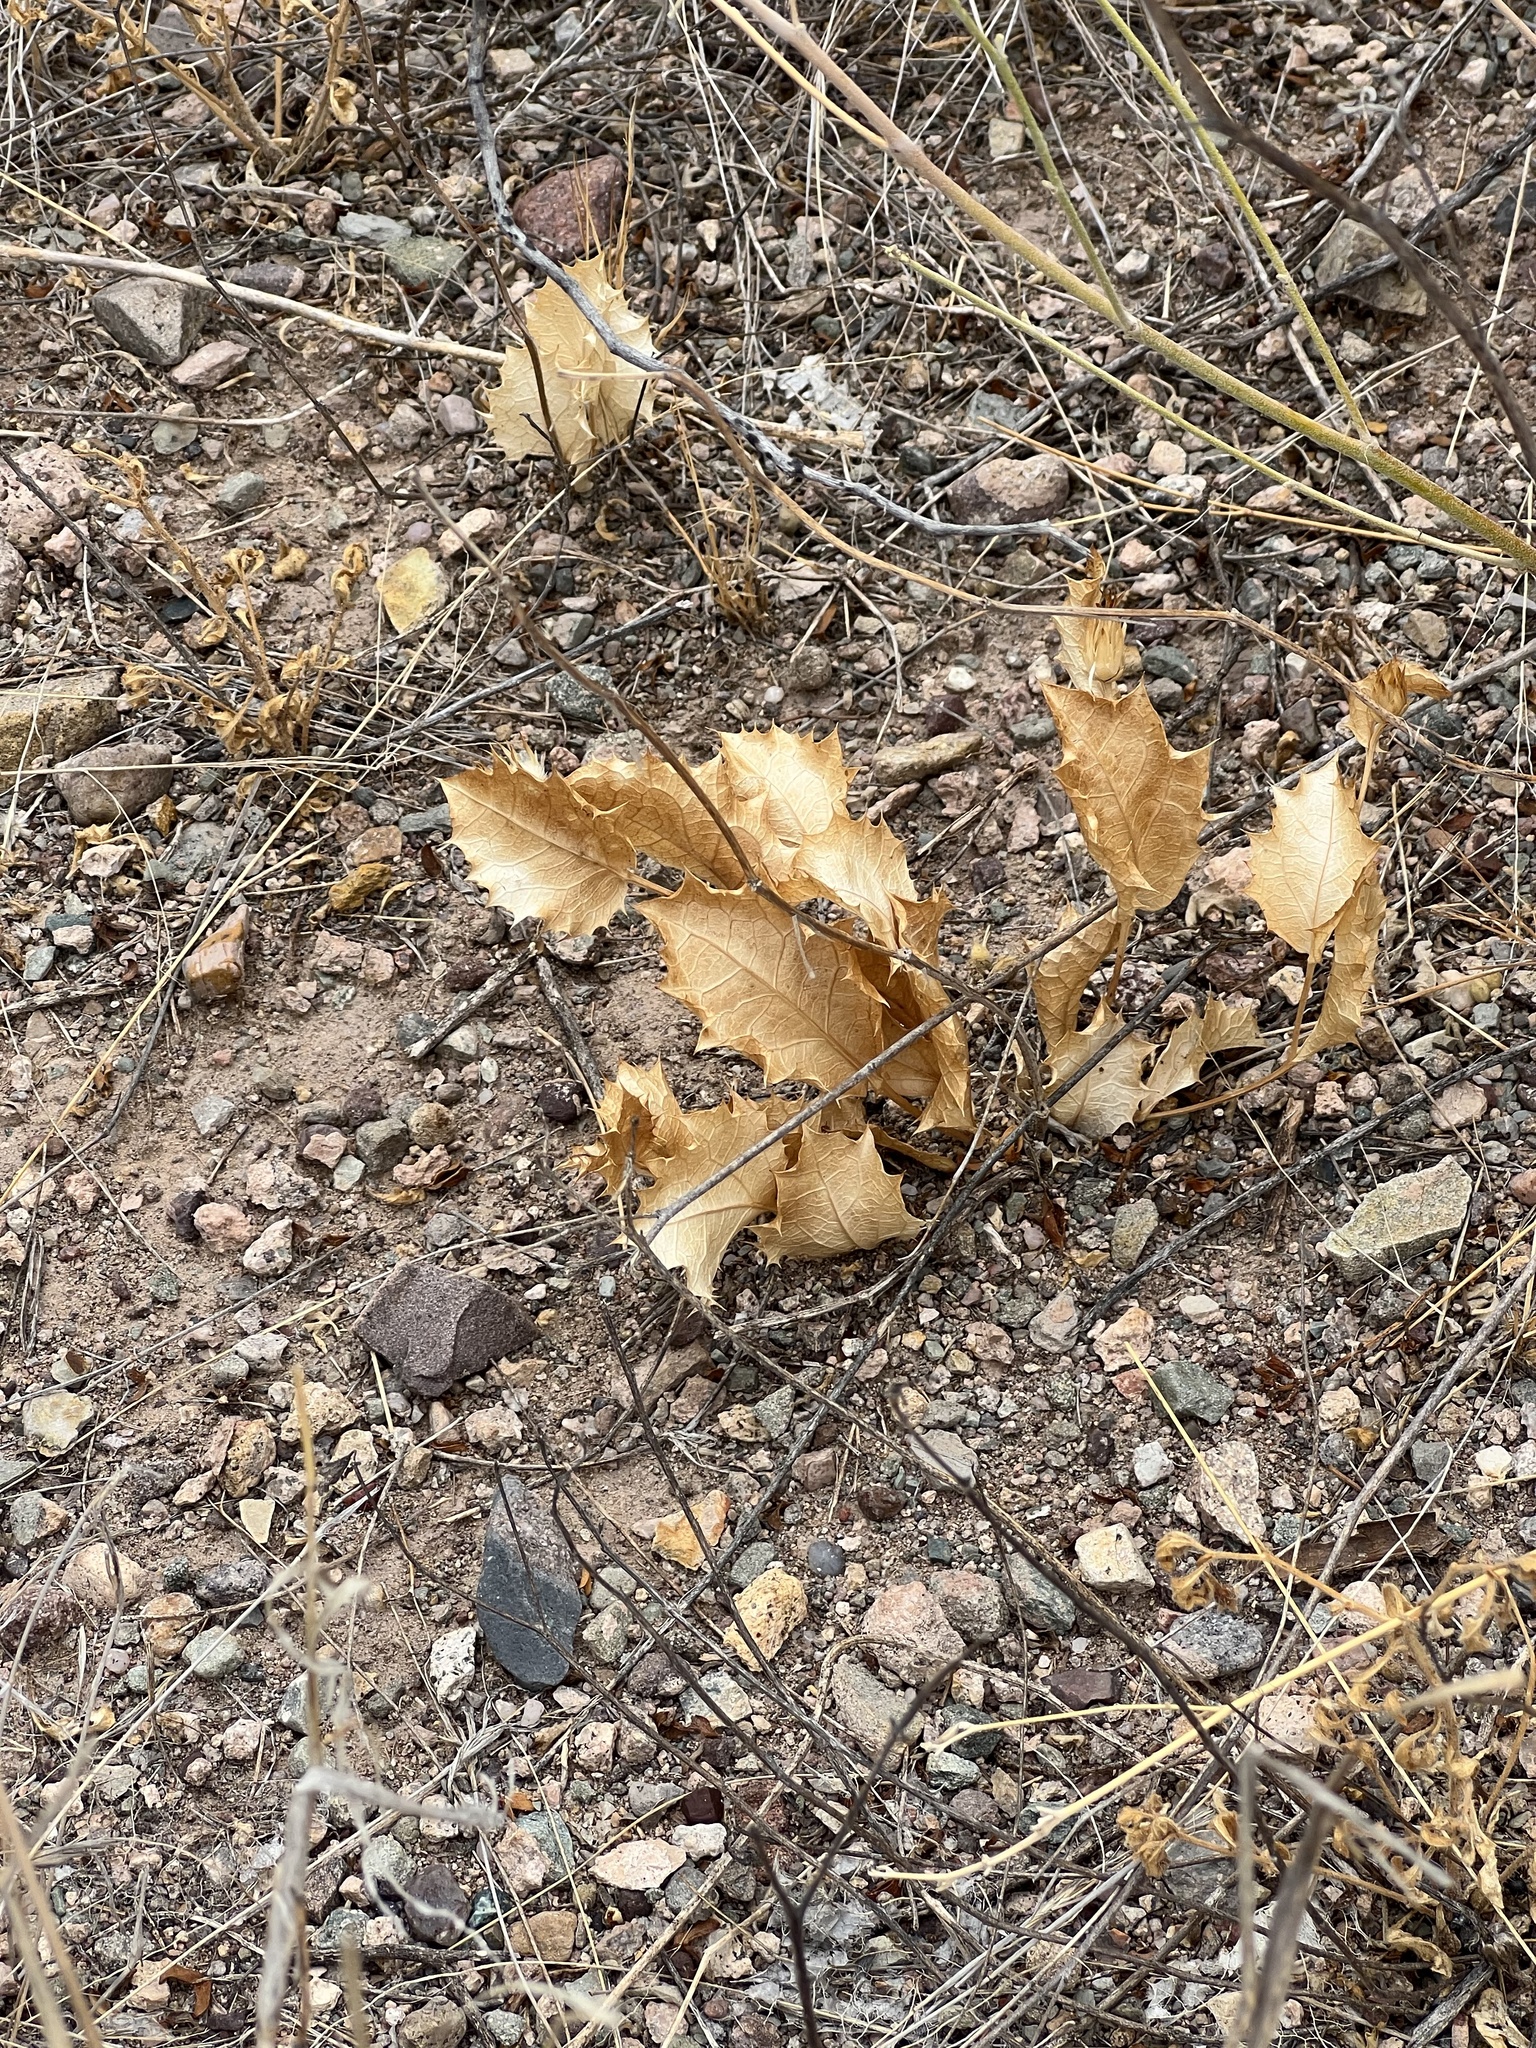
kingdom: Plantae
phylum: Tracheophyta
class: Magnoliopsida
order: Asterales
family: Asteraceae
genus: Acourtia
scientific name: Acourtia nana
